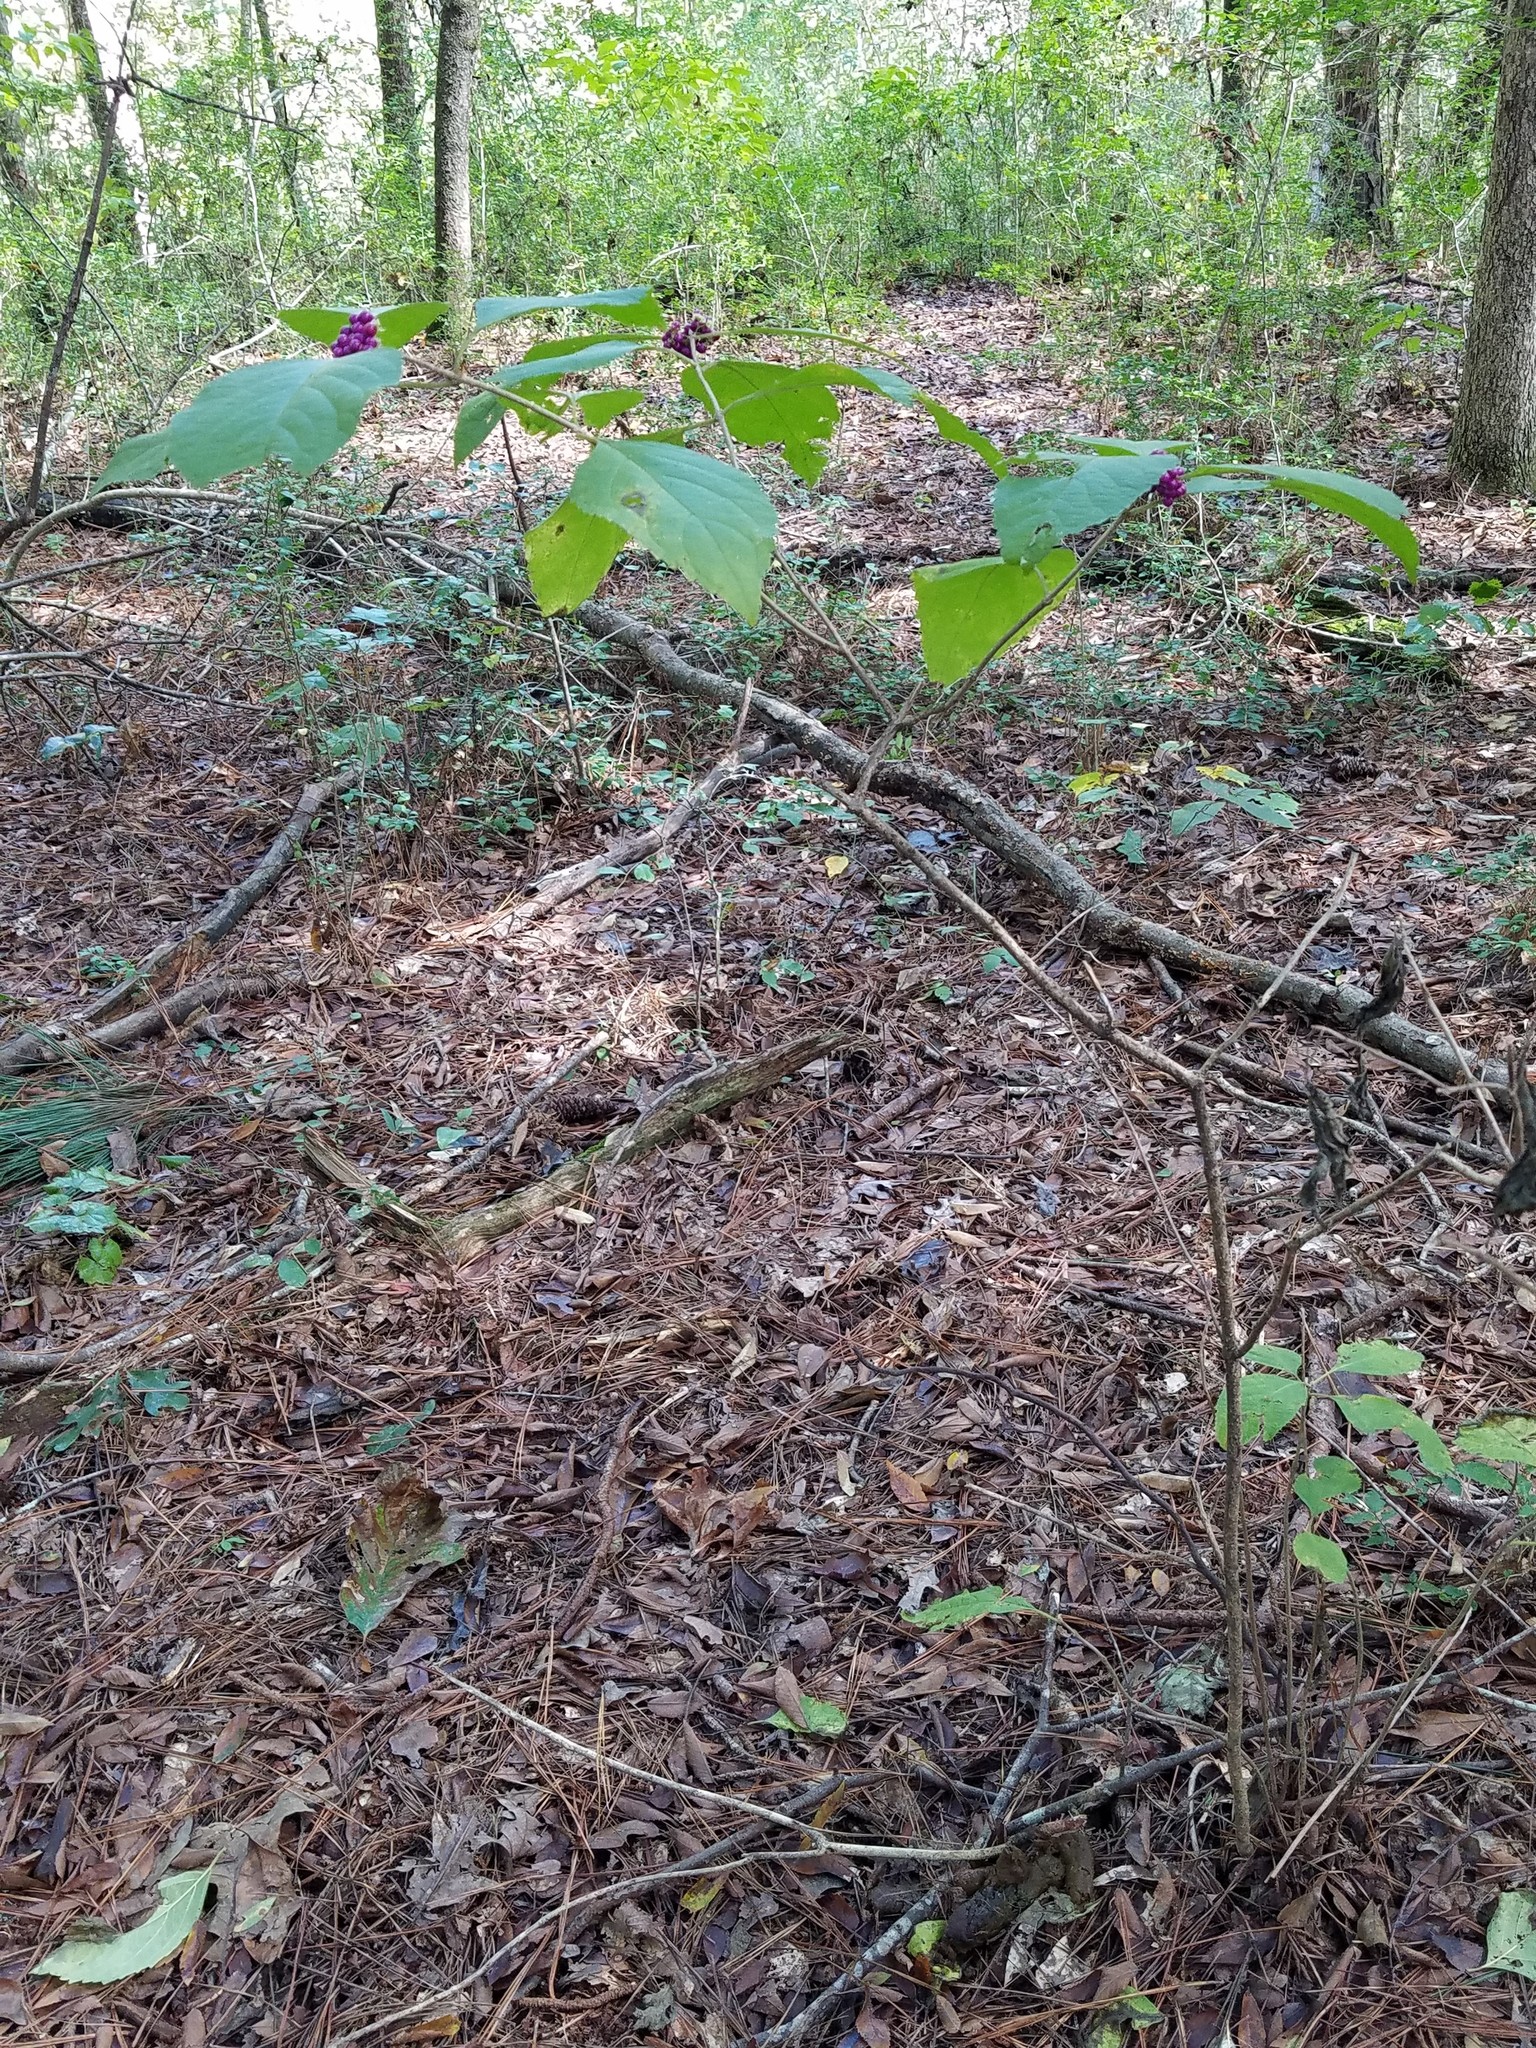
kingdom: Plantae
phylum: Tracheophyta
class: Magnoliopsida
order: Lamiales
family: Lamiaceae
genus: Callicarpa
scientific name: Callicarpa americana
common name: American beautyberry
